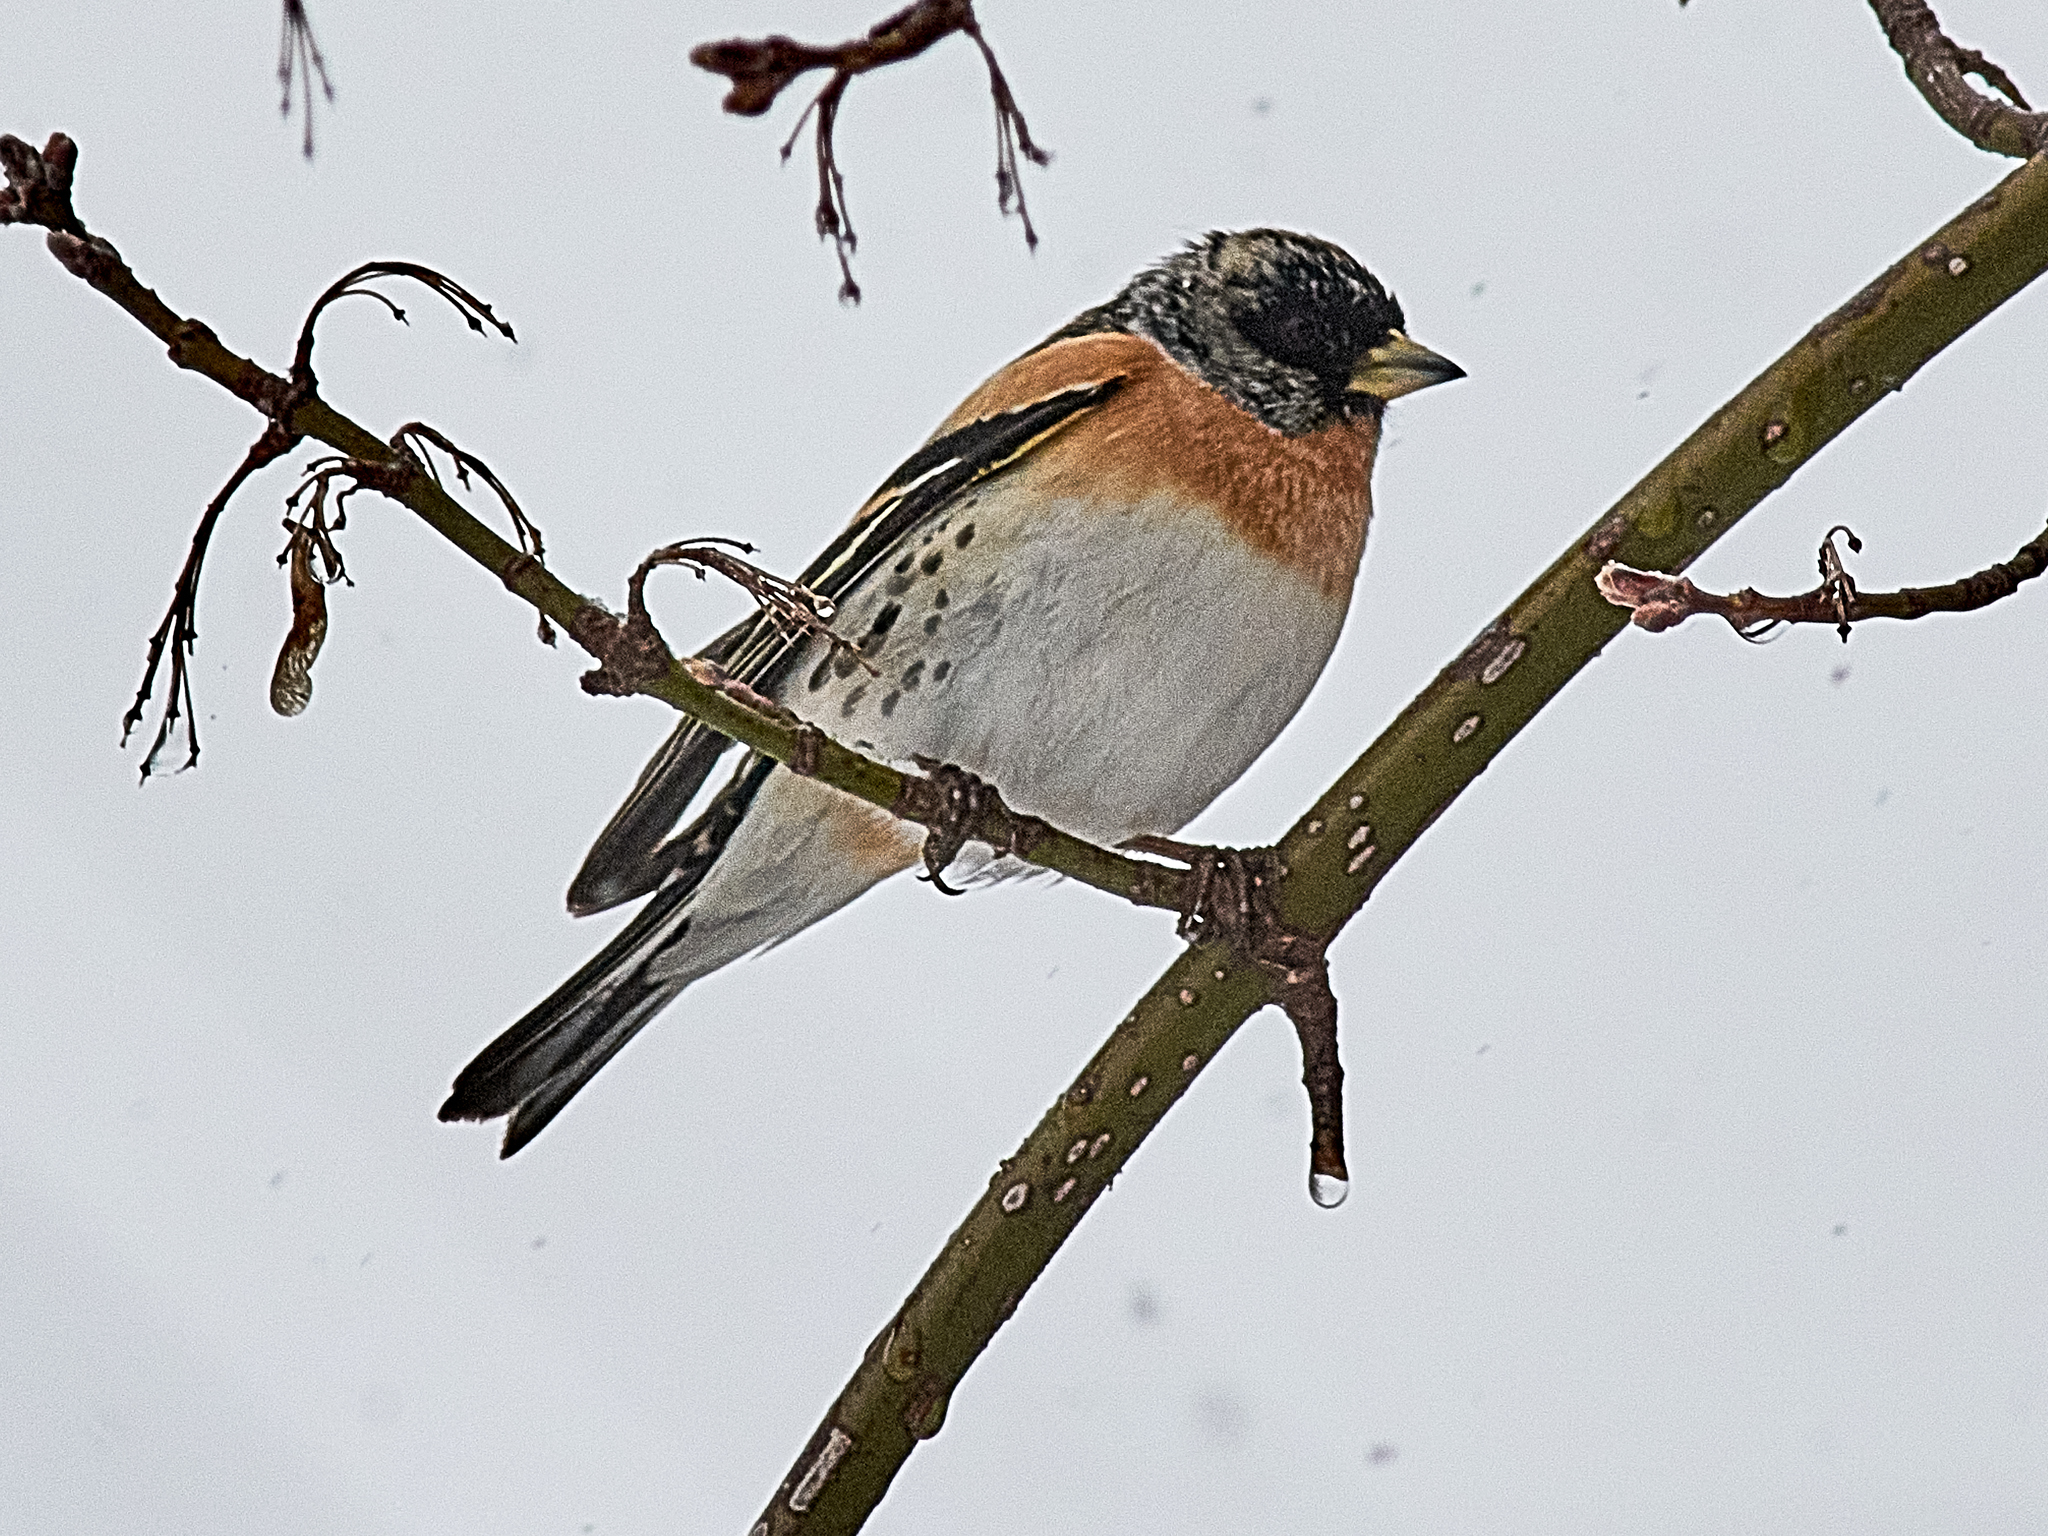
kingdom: Animalia
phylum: Chordata
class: Aves
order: Passeriformes
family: Fringillidae
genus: Fringilla
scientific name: Fringilla montifringilla
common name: Brambling
